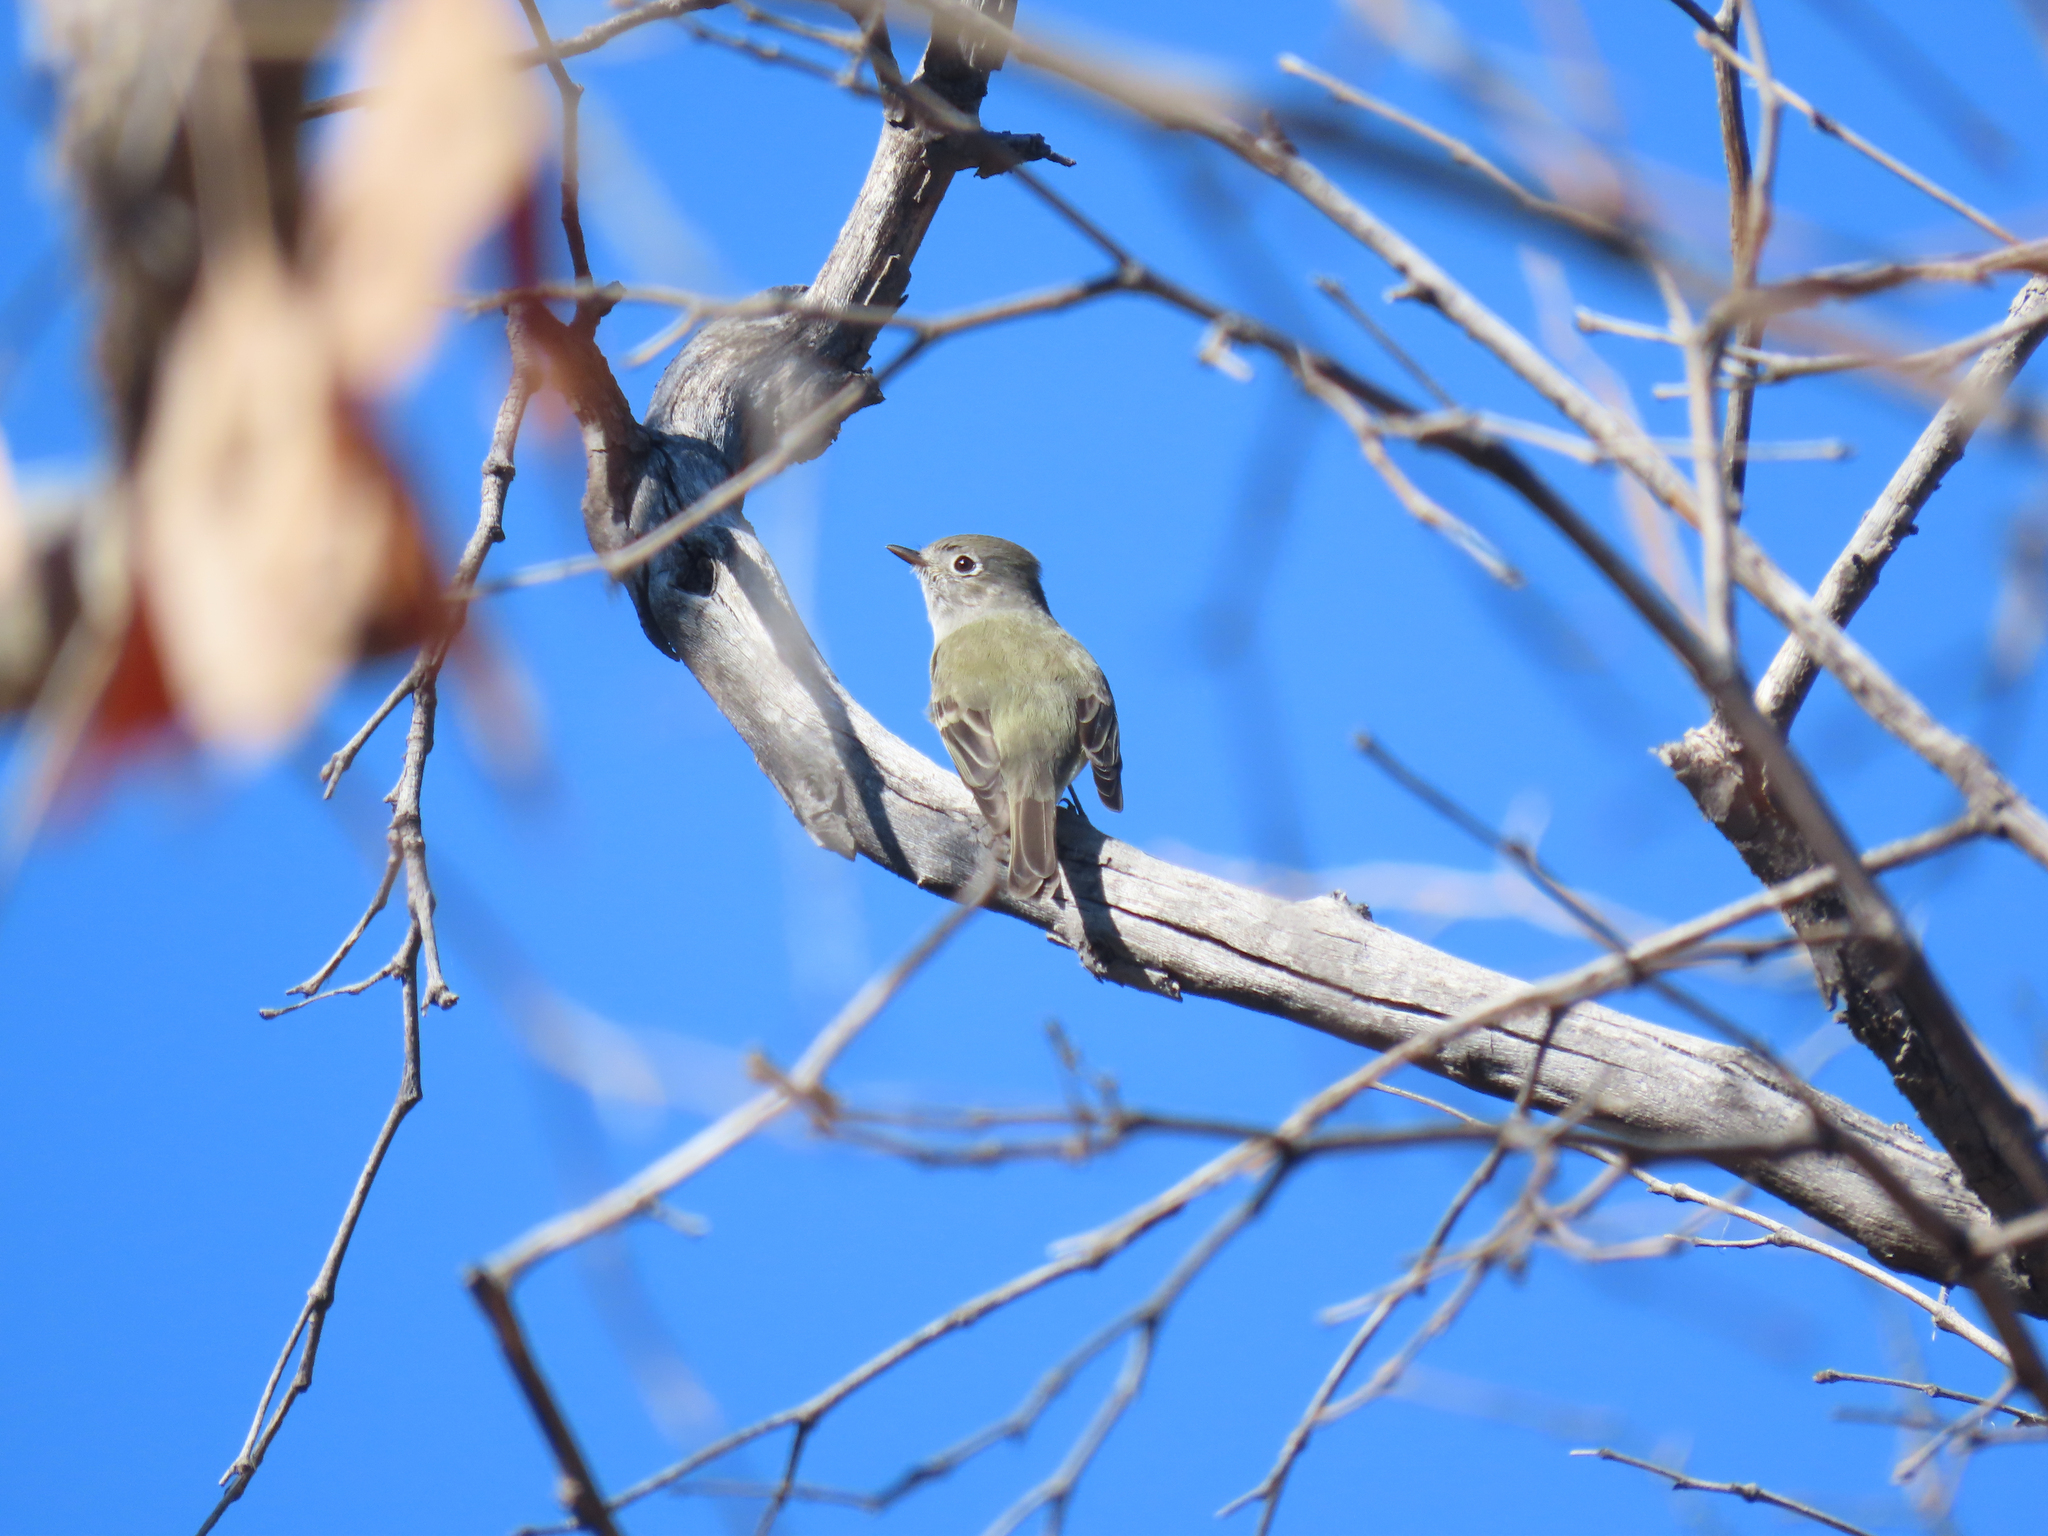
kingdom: Animalia
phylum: Chordata
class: Aves
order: Passeriformes
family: Tyrannidae
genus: Empidonax
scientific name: Empidonax hammondii
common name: Hammond's flycatcher
